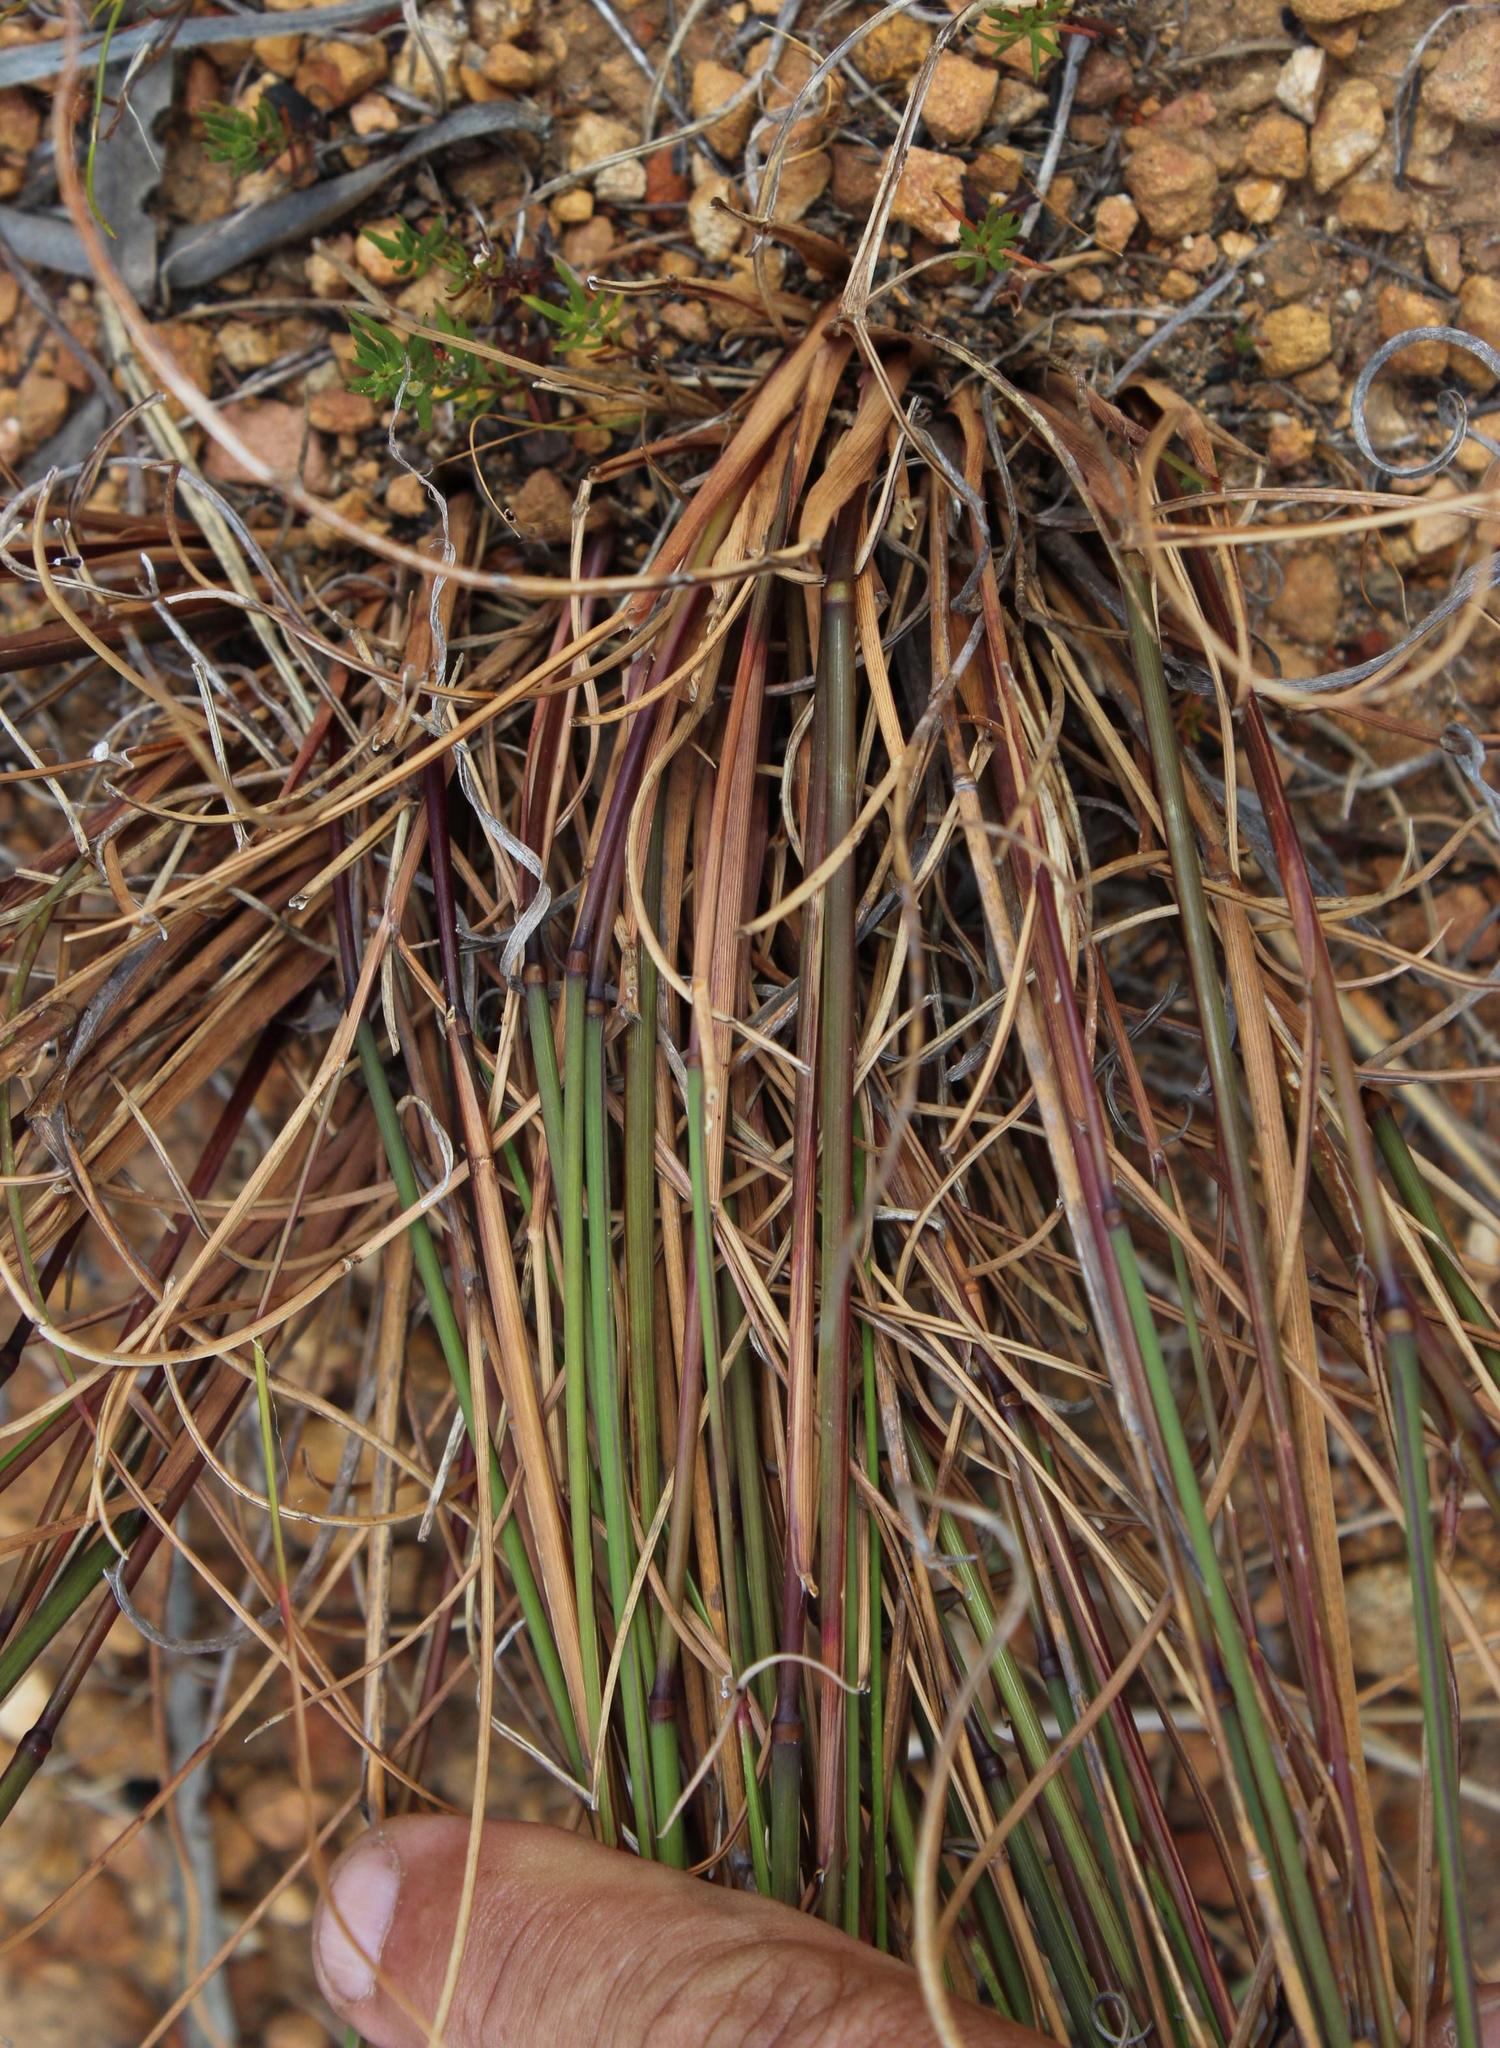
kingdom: Plantae
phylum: Tracheophyta
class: Liliopsida
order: Poales
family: Poaceae
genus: Tribolium
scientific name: Tribolium uniolae
